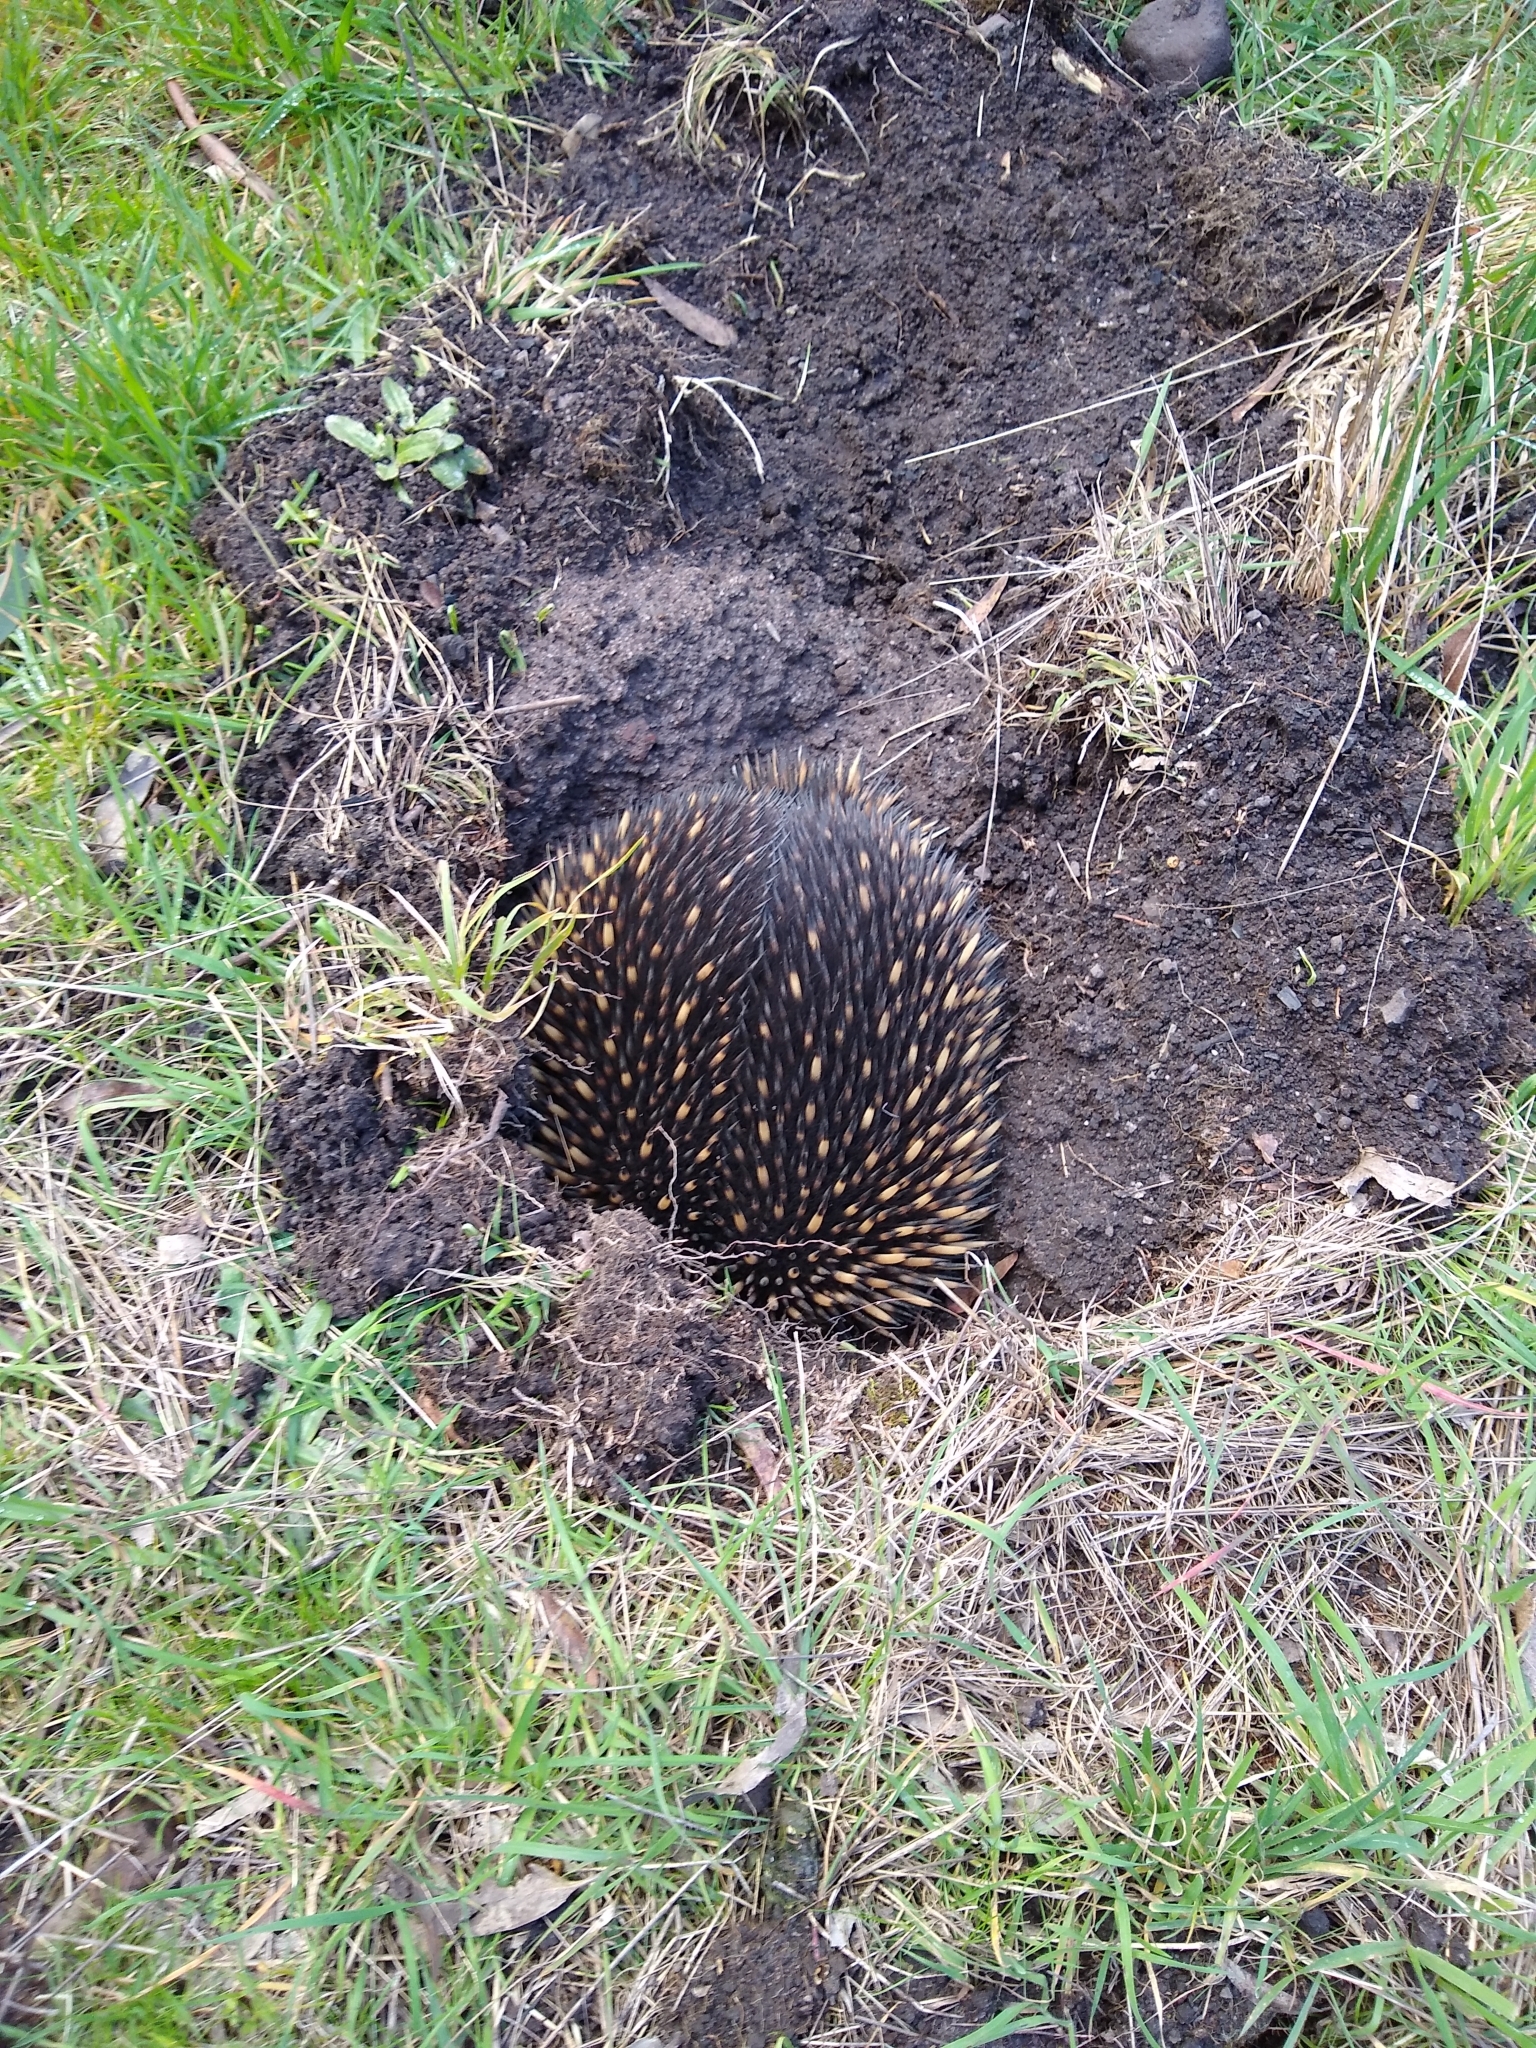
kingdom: Animalia
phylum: Chordata
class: Mammalia
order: Monotremata
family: Tachyglossidae
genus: Tachyglossus
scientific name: Tachyglossus aculeatus
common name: Short-beaked echidna
